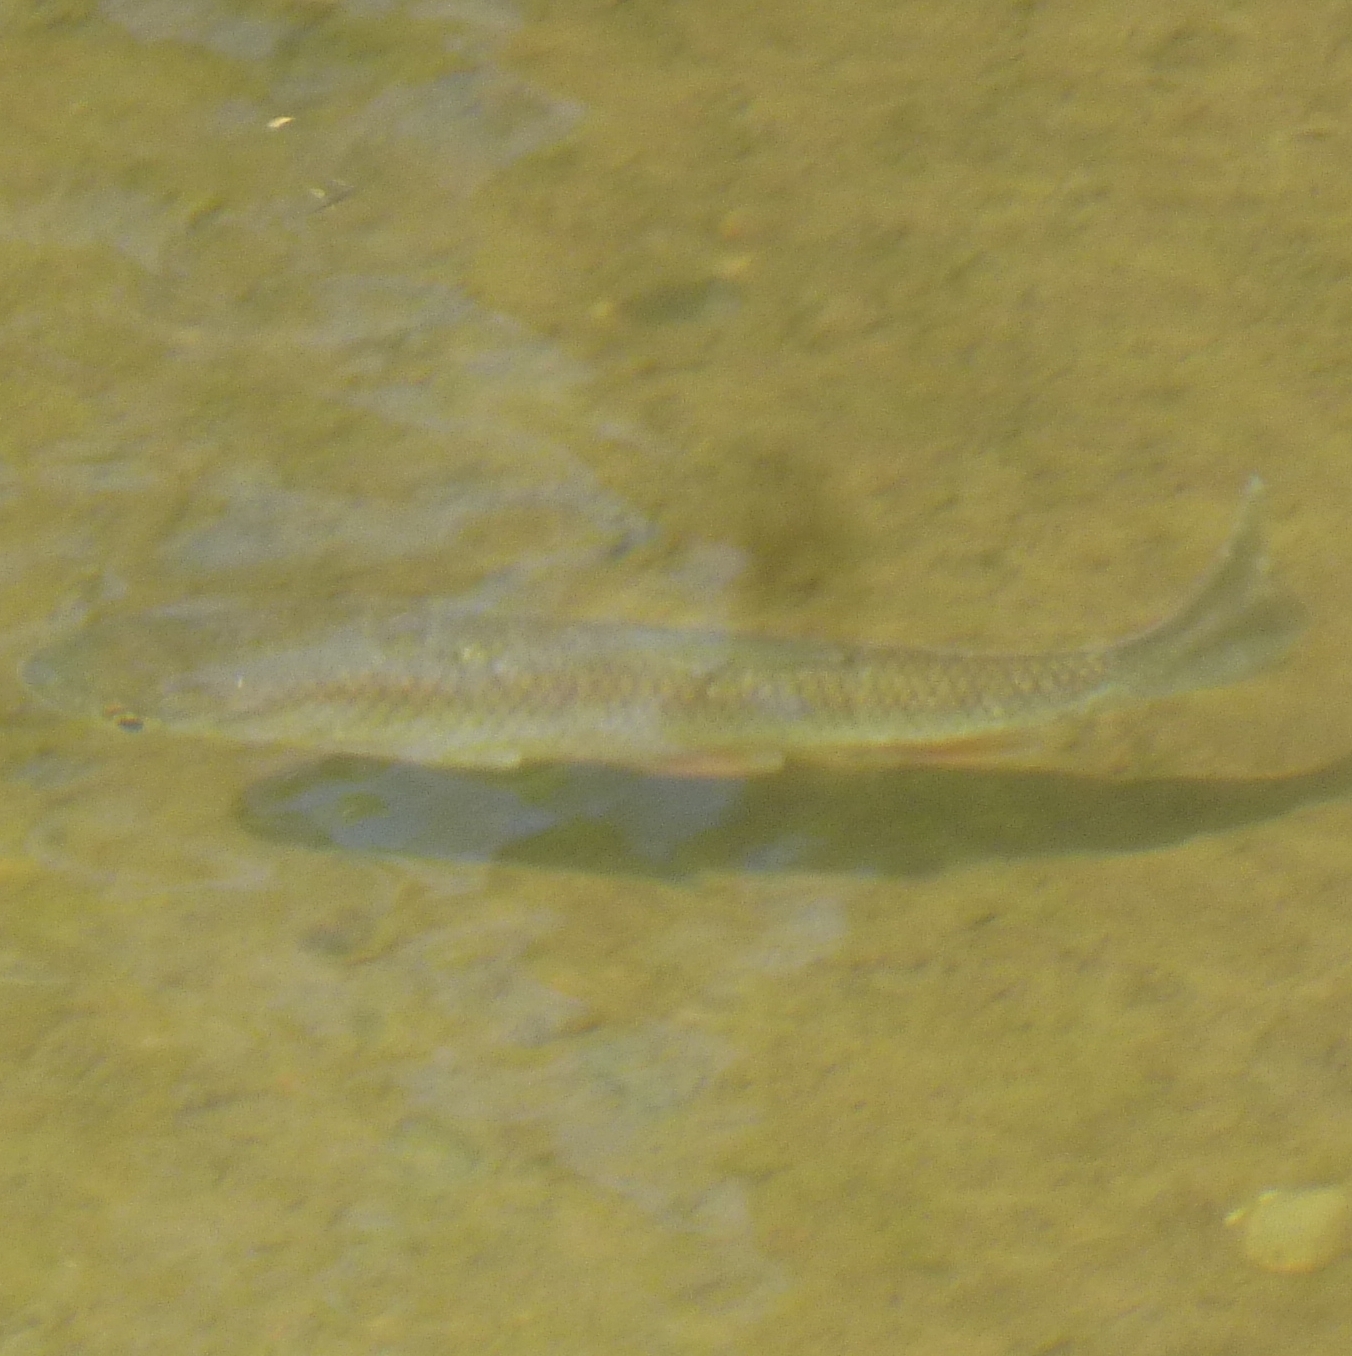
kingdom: Animalia
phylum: Chordata
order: Cypriniformes
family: Cyprinidae
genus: Squalius
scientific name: Squalius cephalus
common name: Chub
